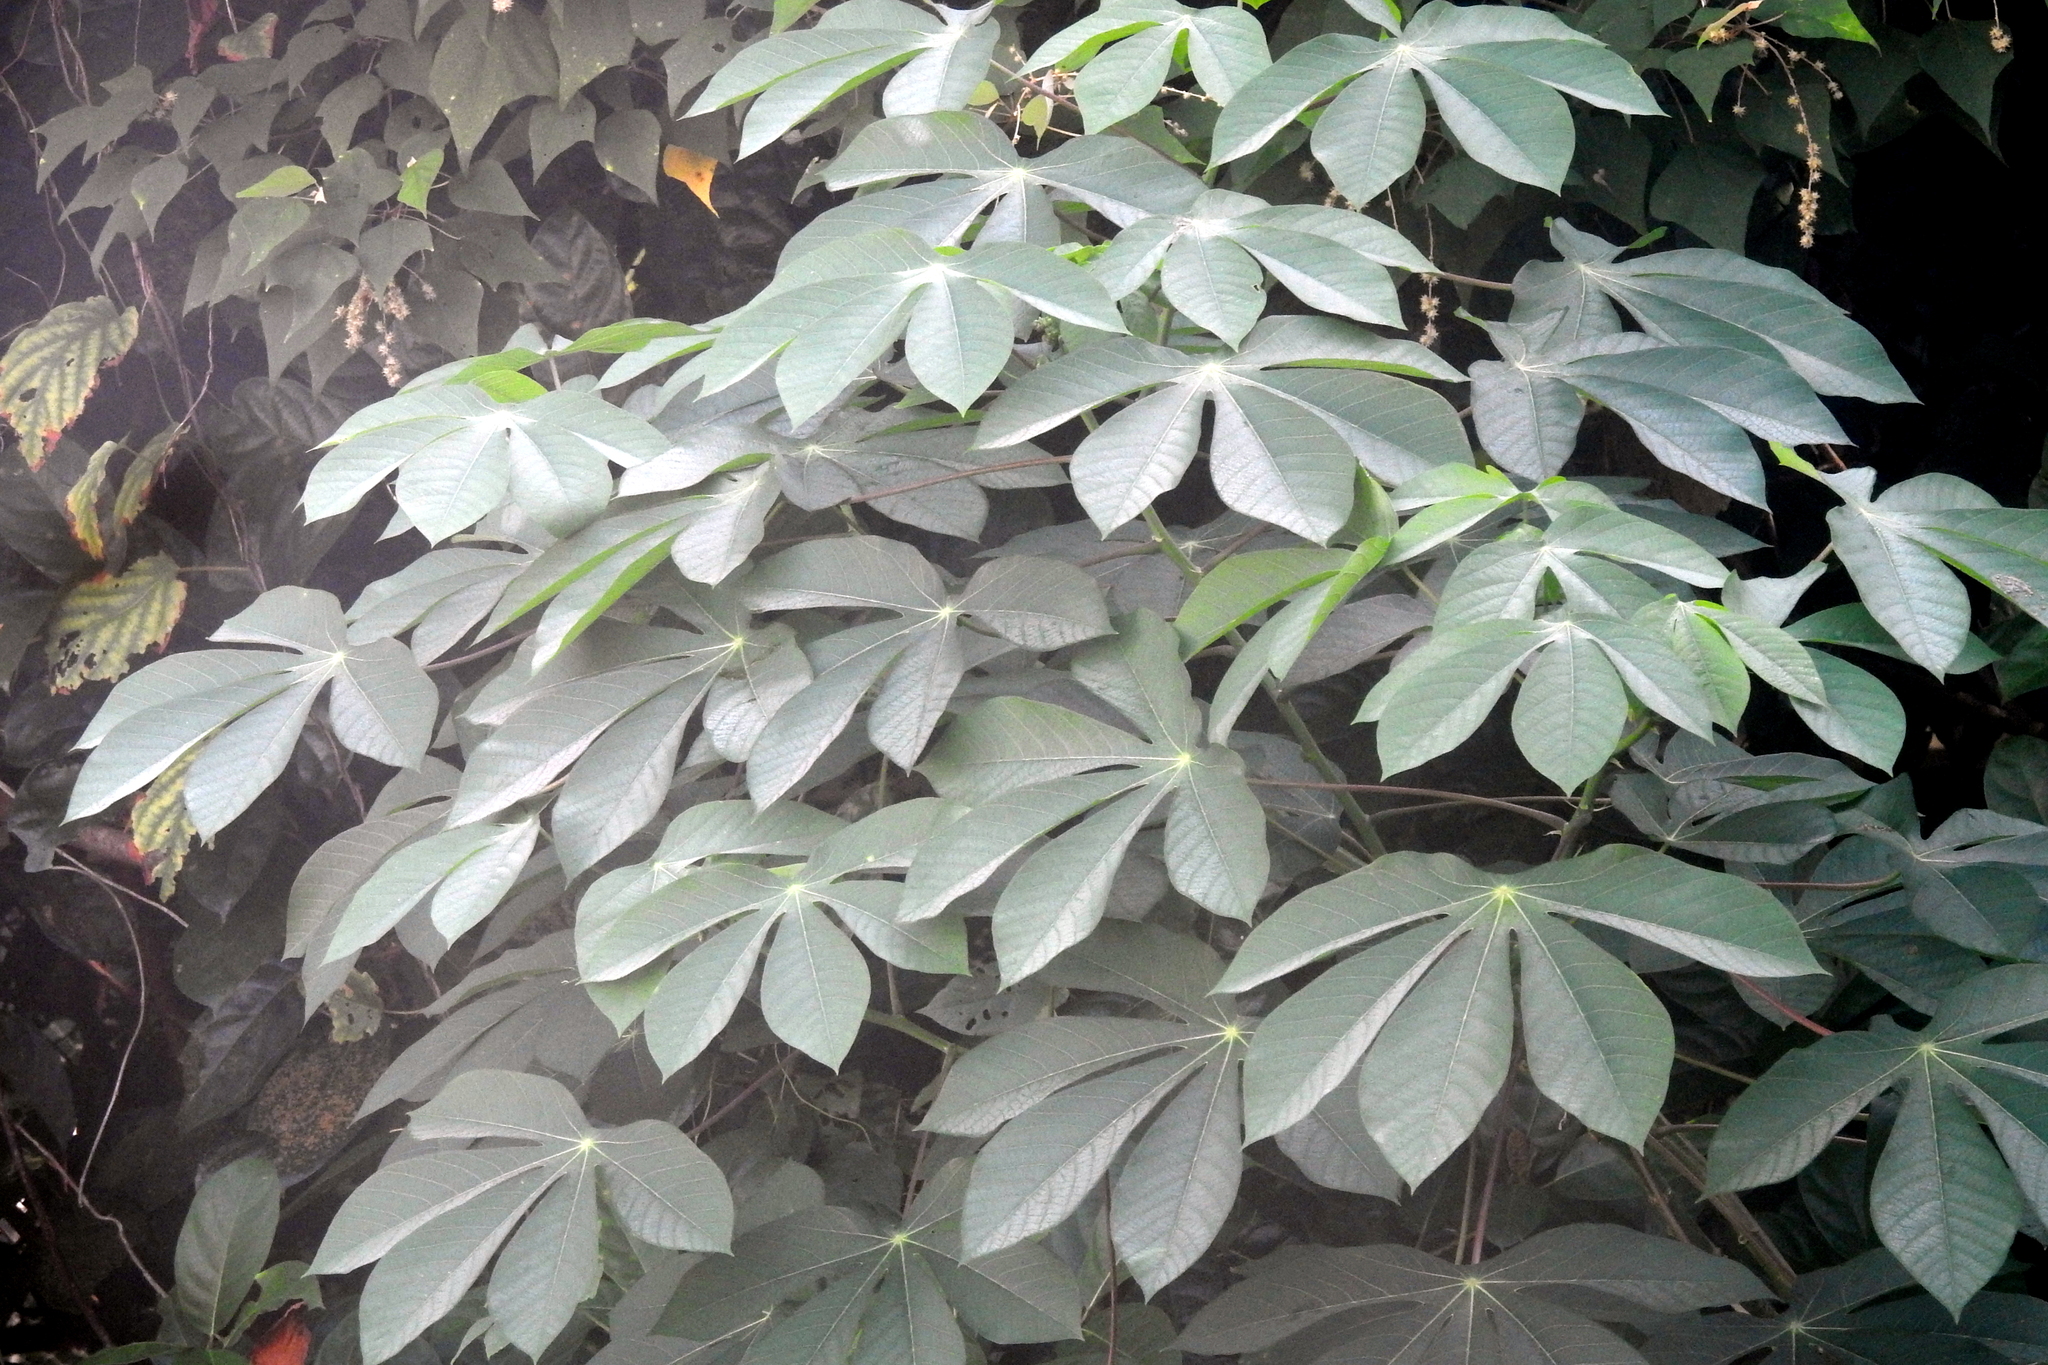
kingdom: Plantae
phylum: Tracheophyta
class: Magnoliopsida
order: Malpighiales
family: Euphorbiaceae
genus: Manihot
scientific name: Manihot carthagenensis
